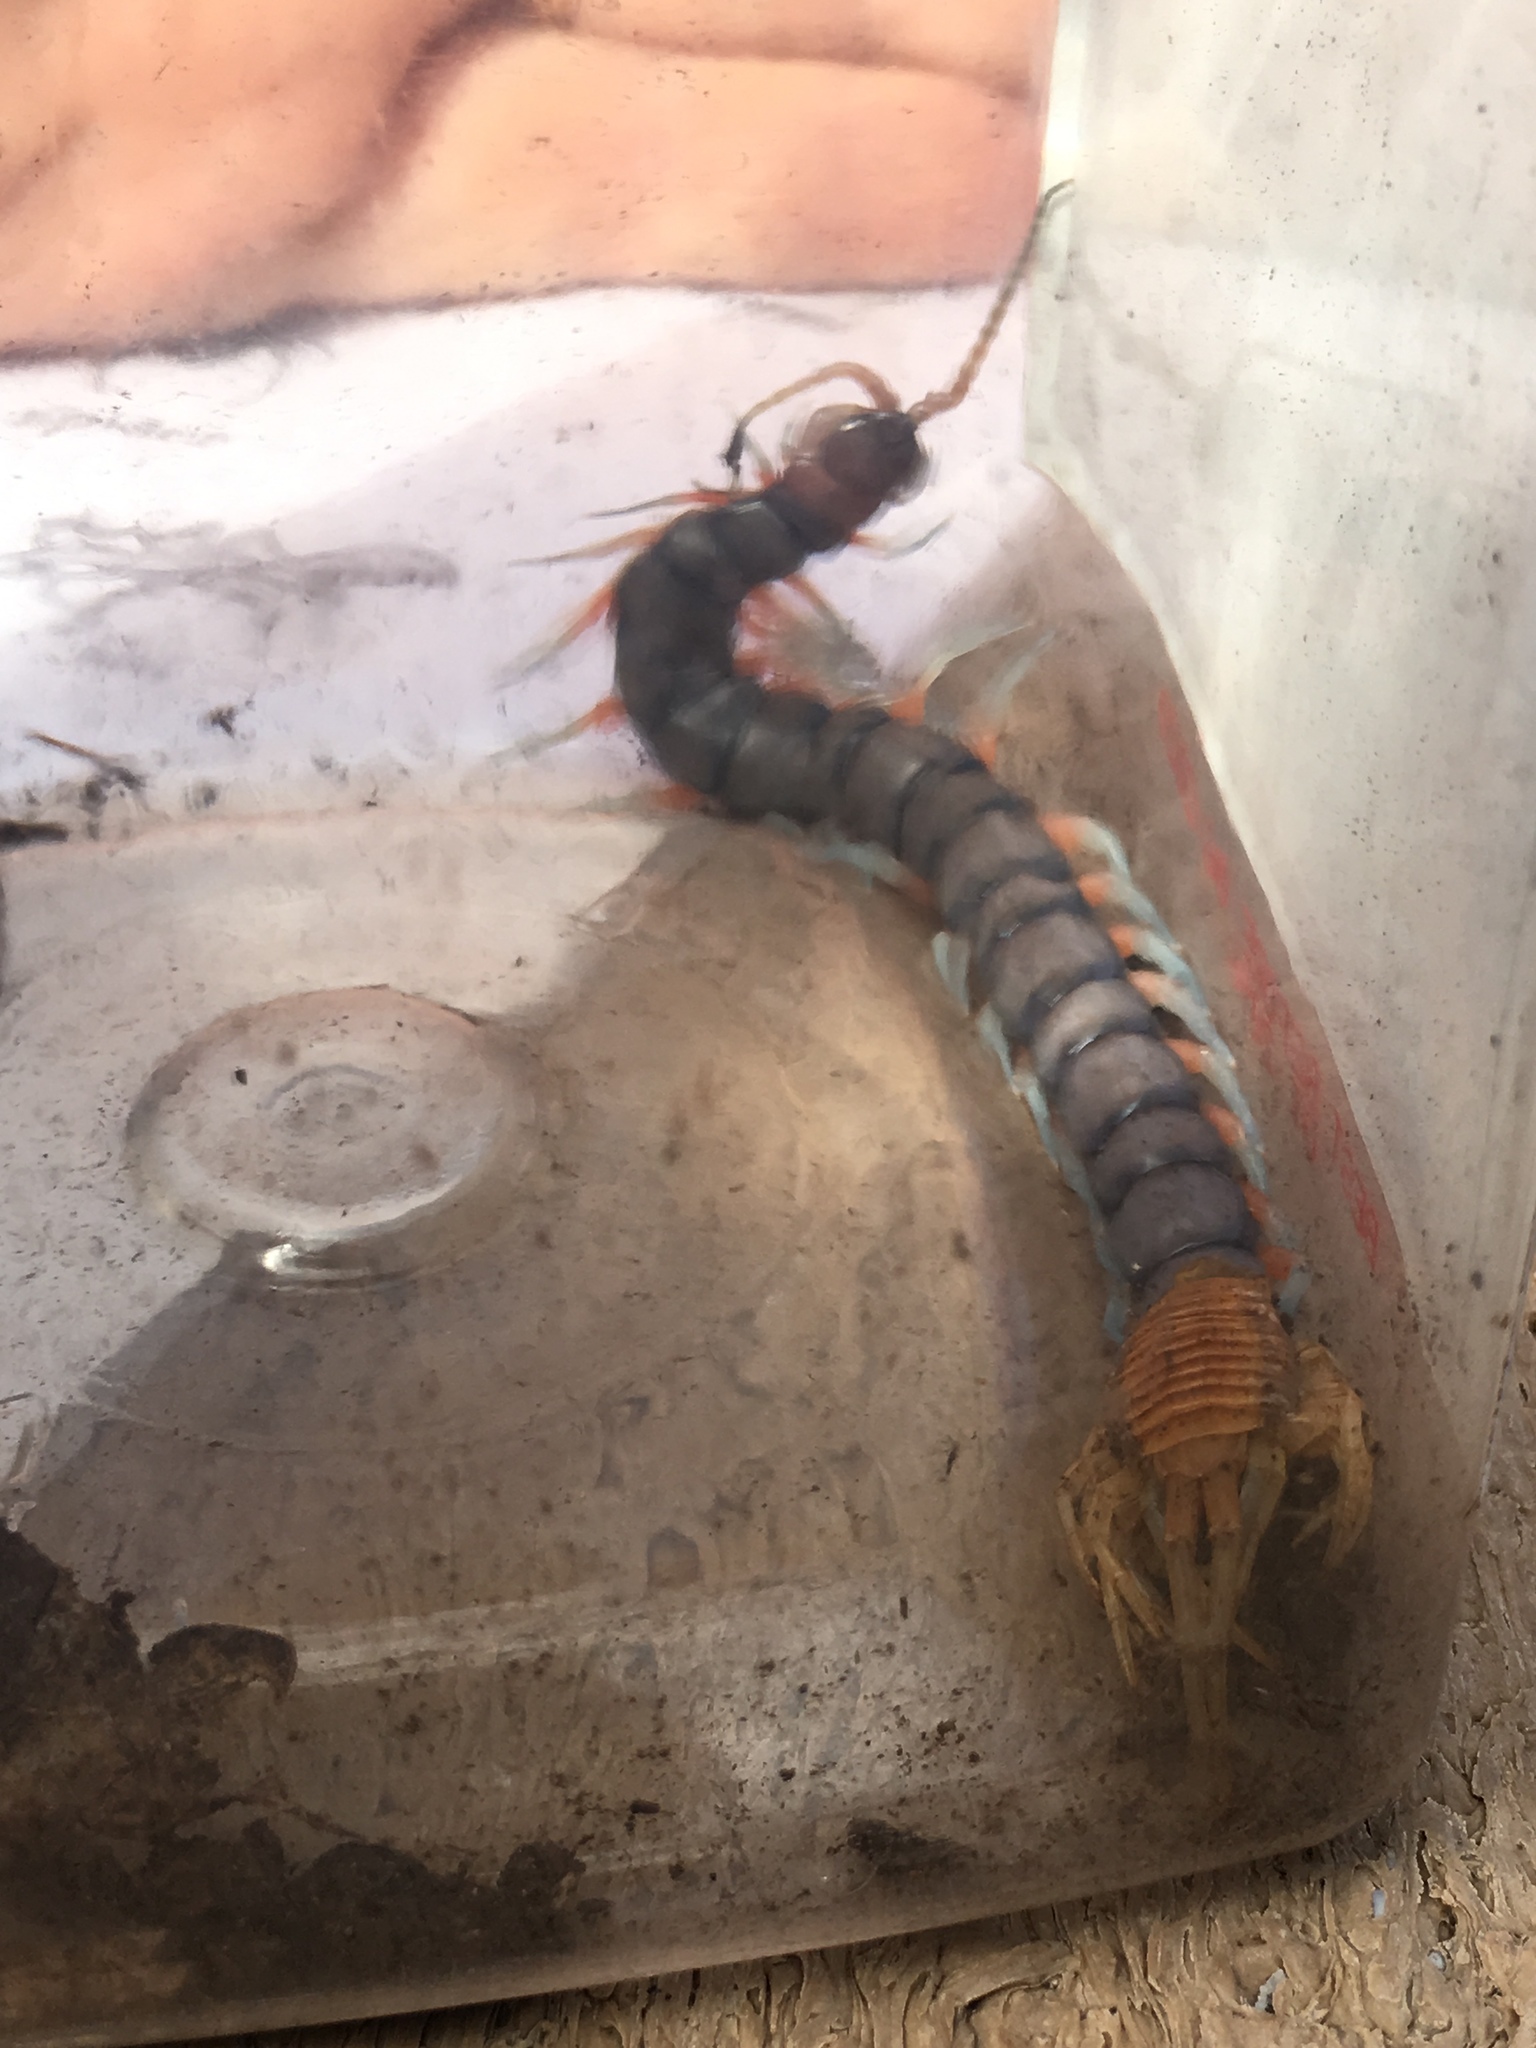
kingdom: Animalia
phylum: Arthropoda
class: Chilopoda
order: Scolopendromorpha
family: Scolopendridae
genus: Scolopendra
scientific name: Scolopendra subspinipes
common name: Centipede
